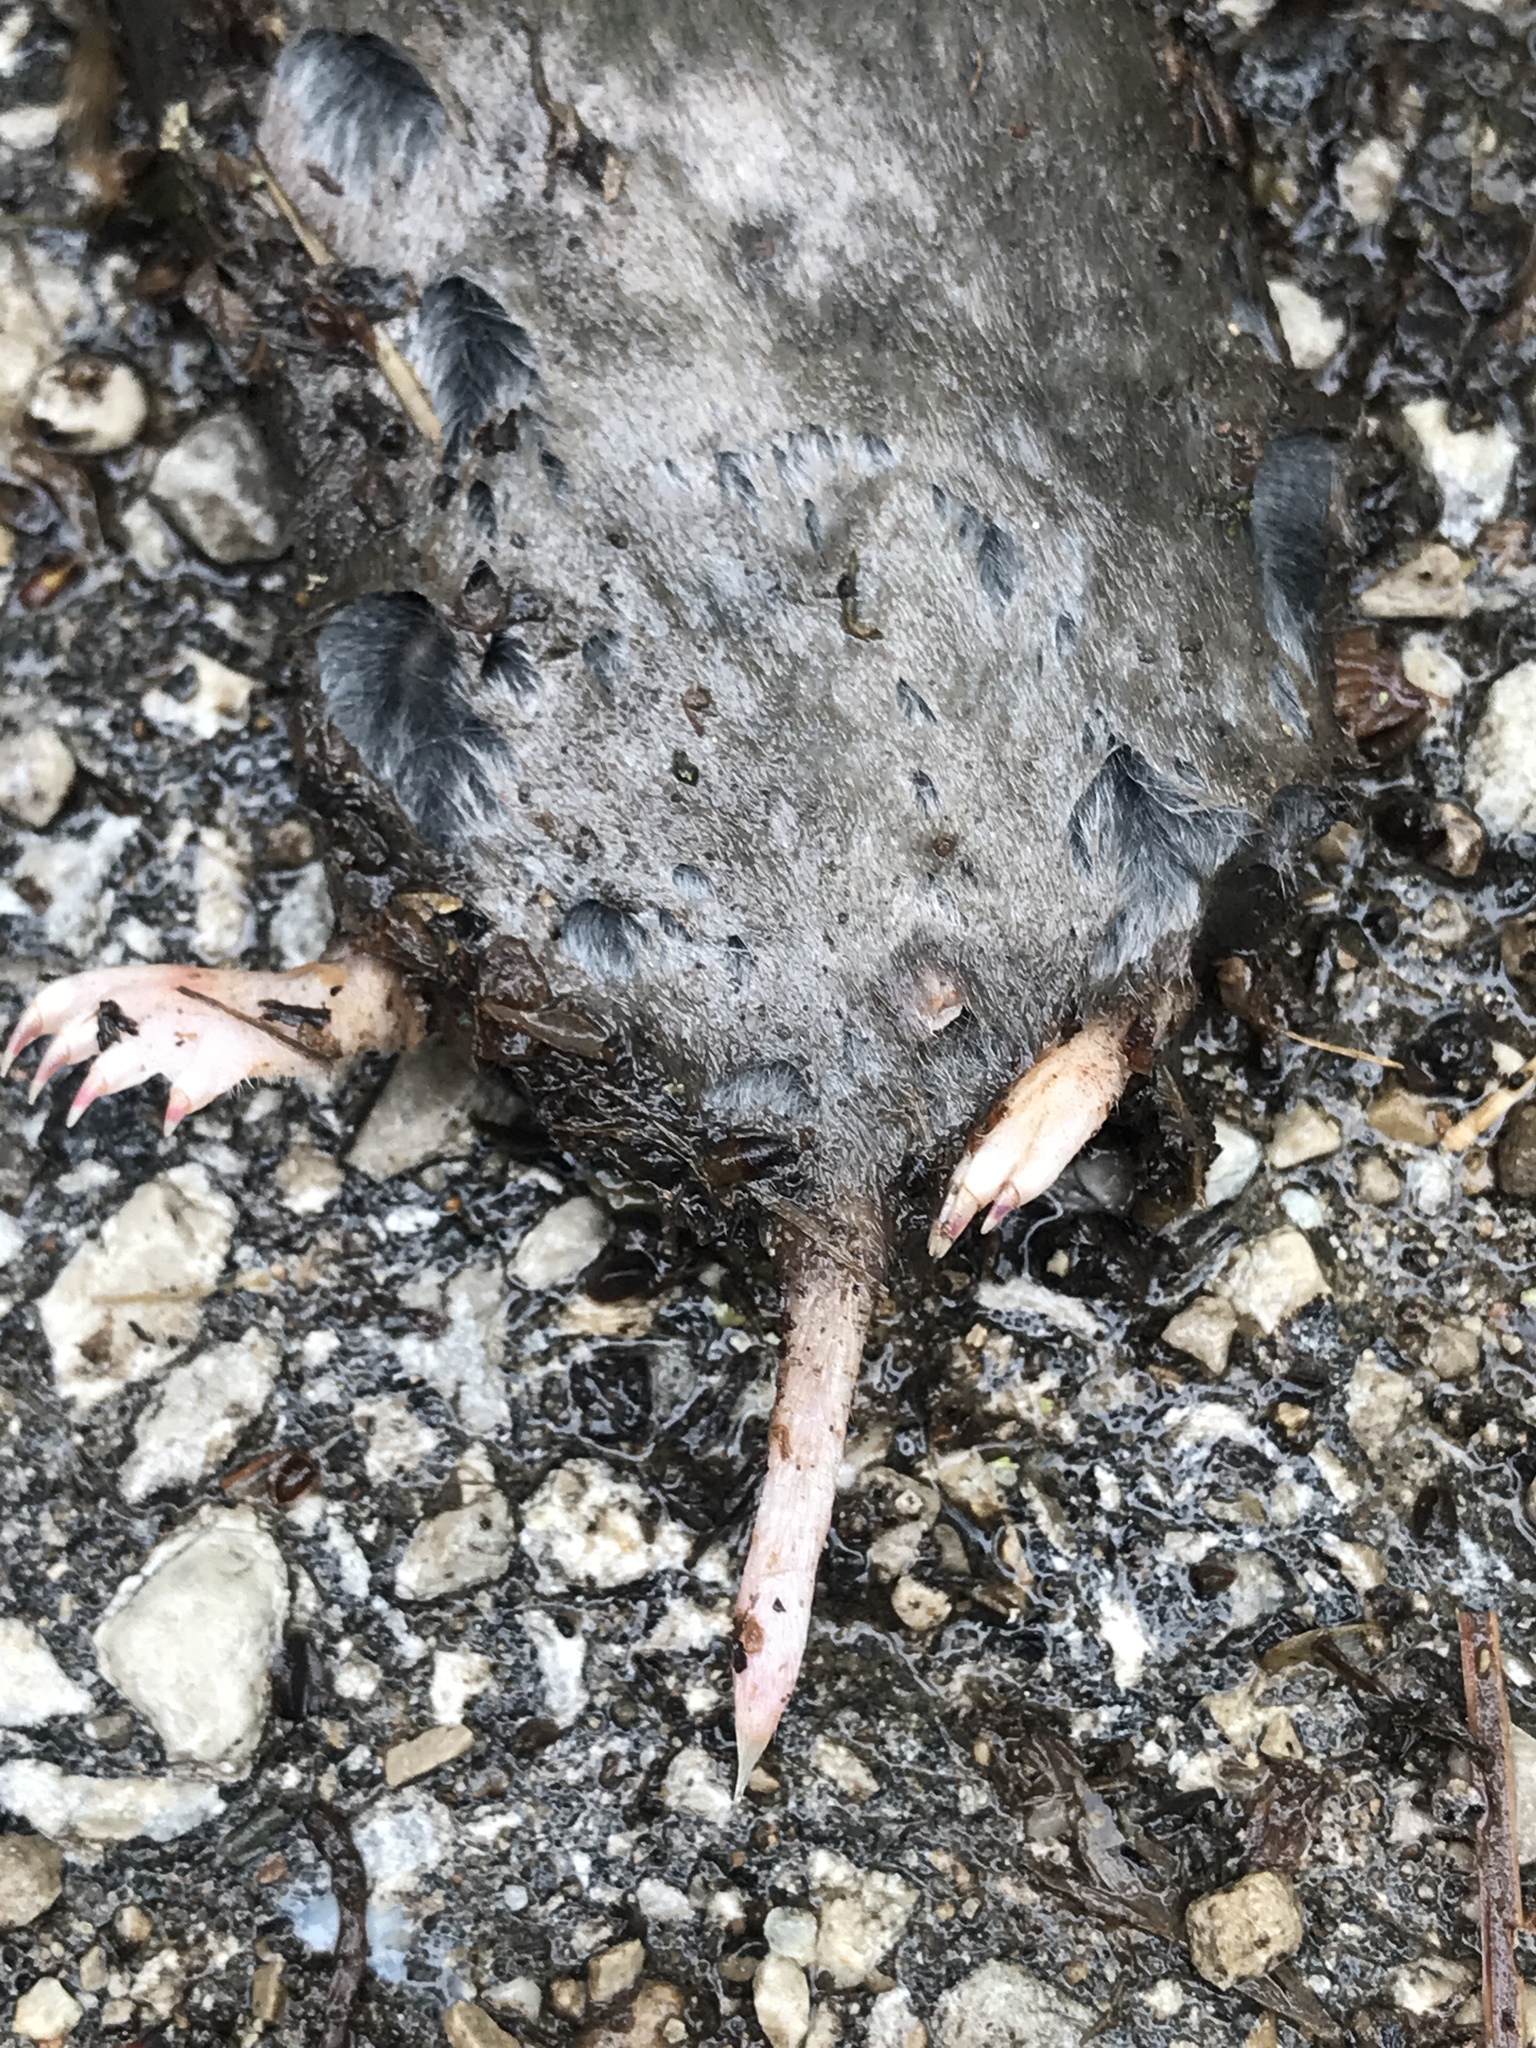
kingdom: Animalia
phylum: Chordata
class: Mammalia
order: Soricomorpha
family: Talpidae
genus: Scalopus
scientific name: Scalopus aquaticus
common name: Eastern mole
